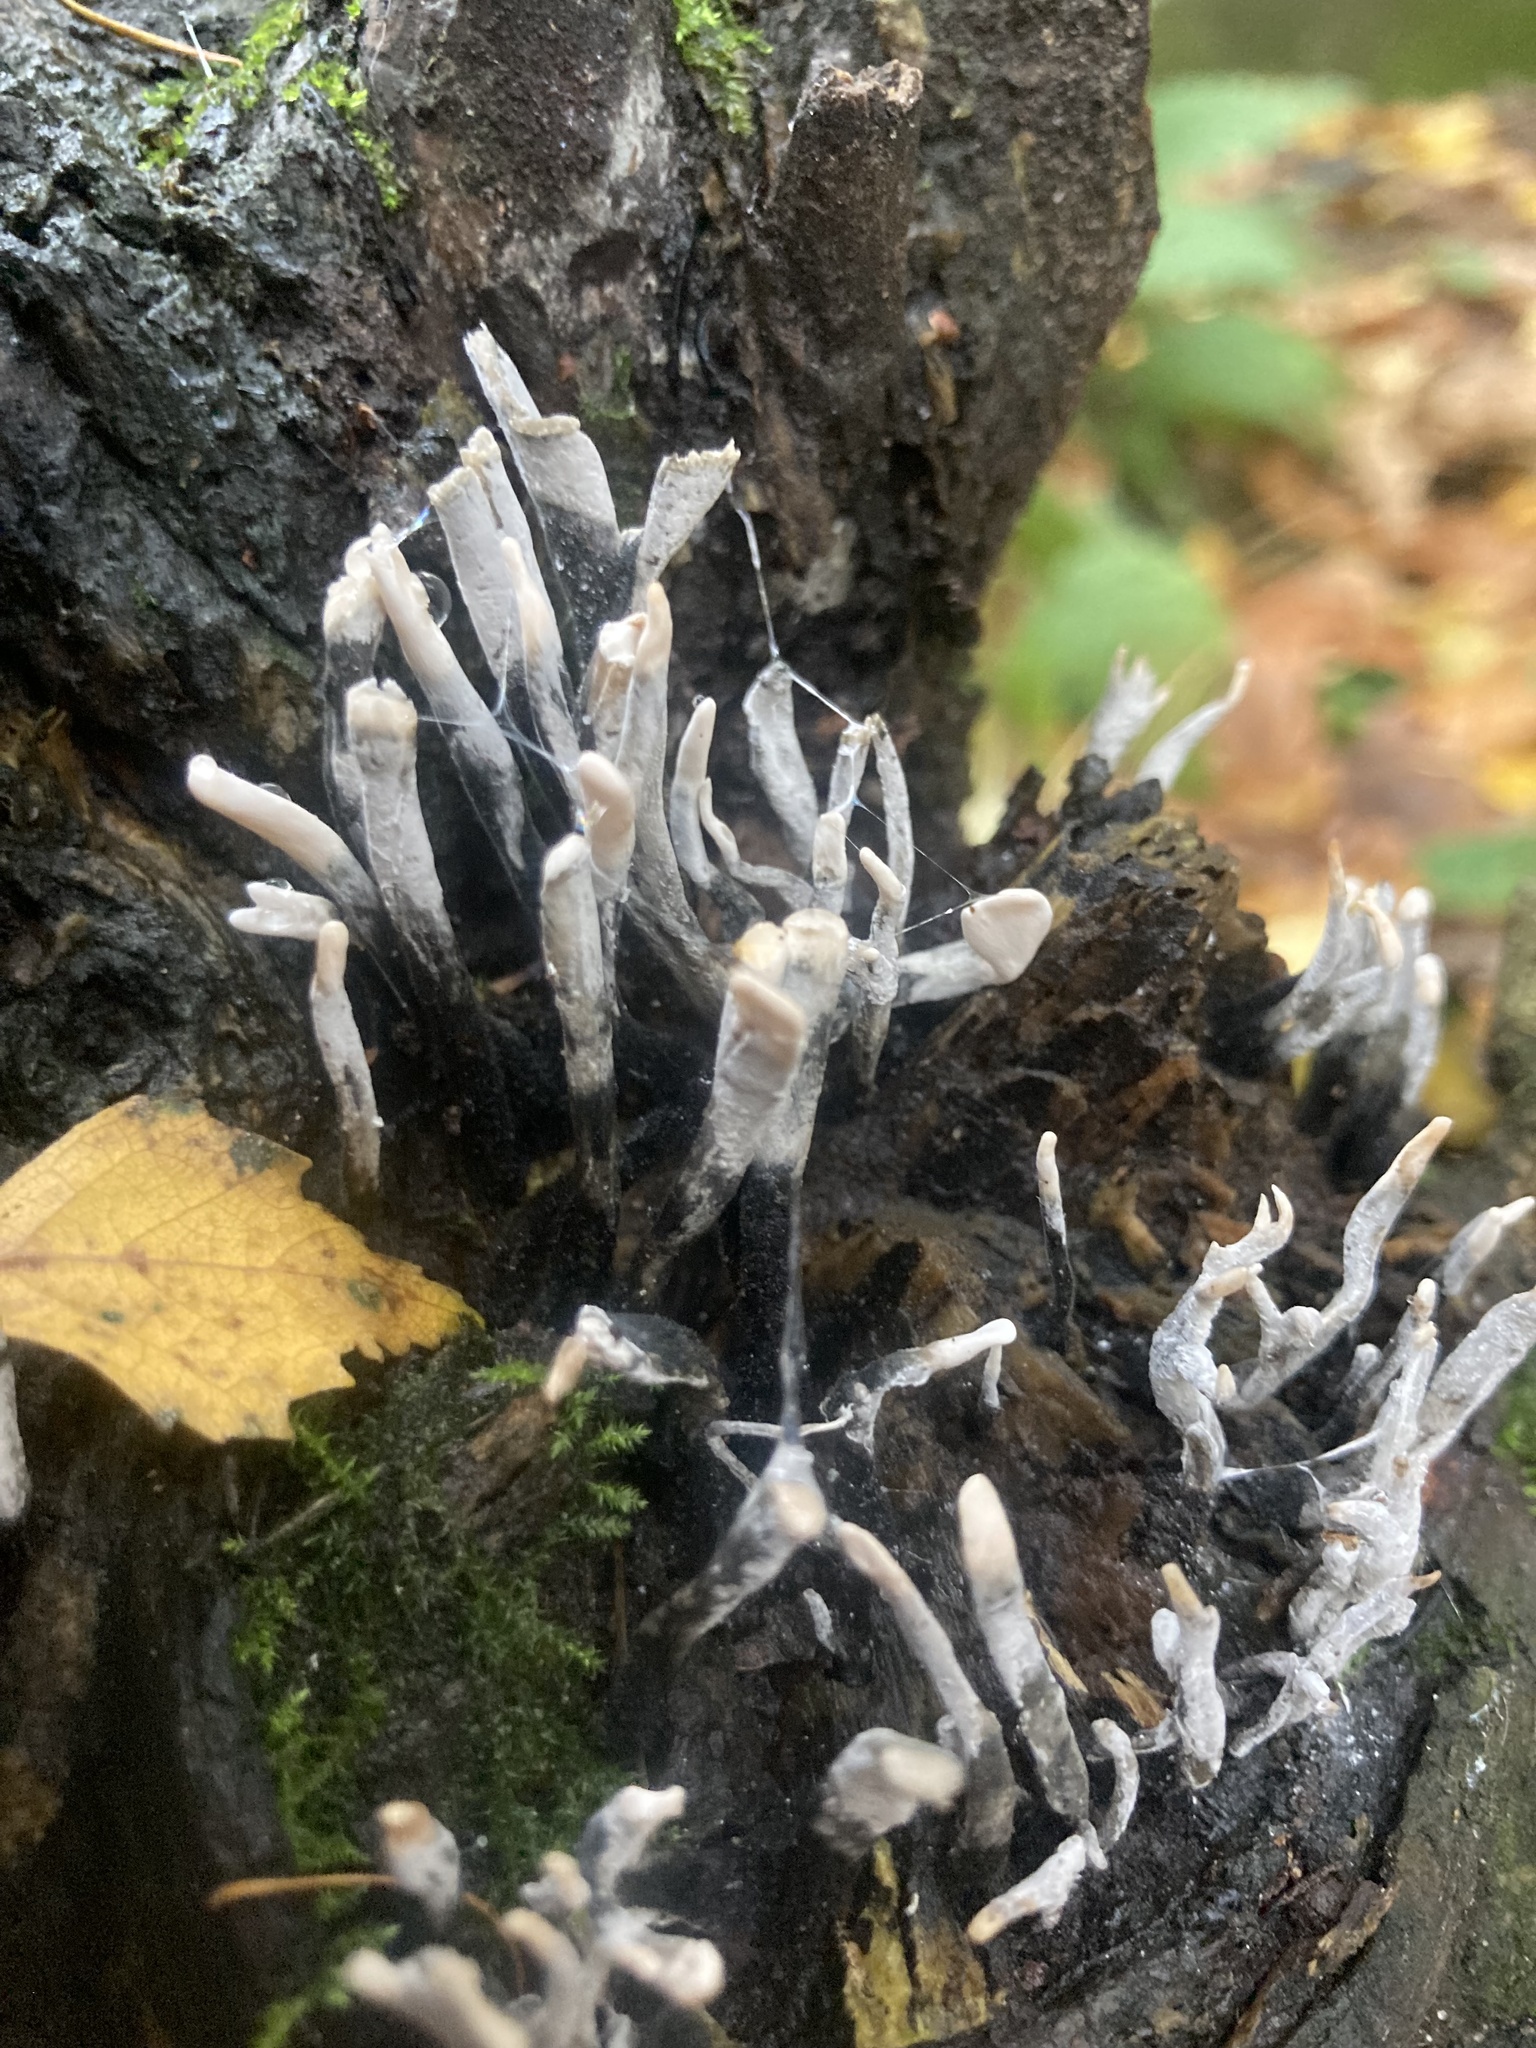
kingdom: Fungi
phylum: Ascomycota
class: Sordariomycetes
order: Xylariales
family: Xylariaceae
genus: Xylaria
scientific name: Xylaria hypoxylon
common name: Candle-snuff fungus
